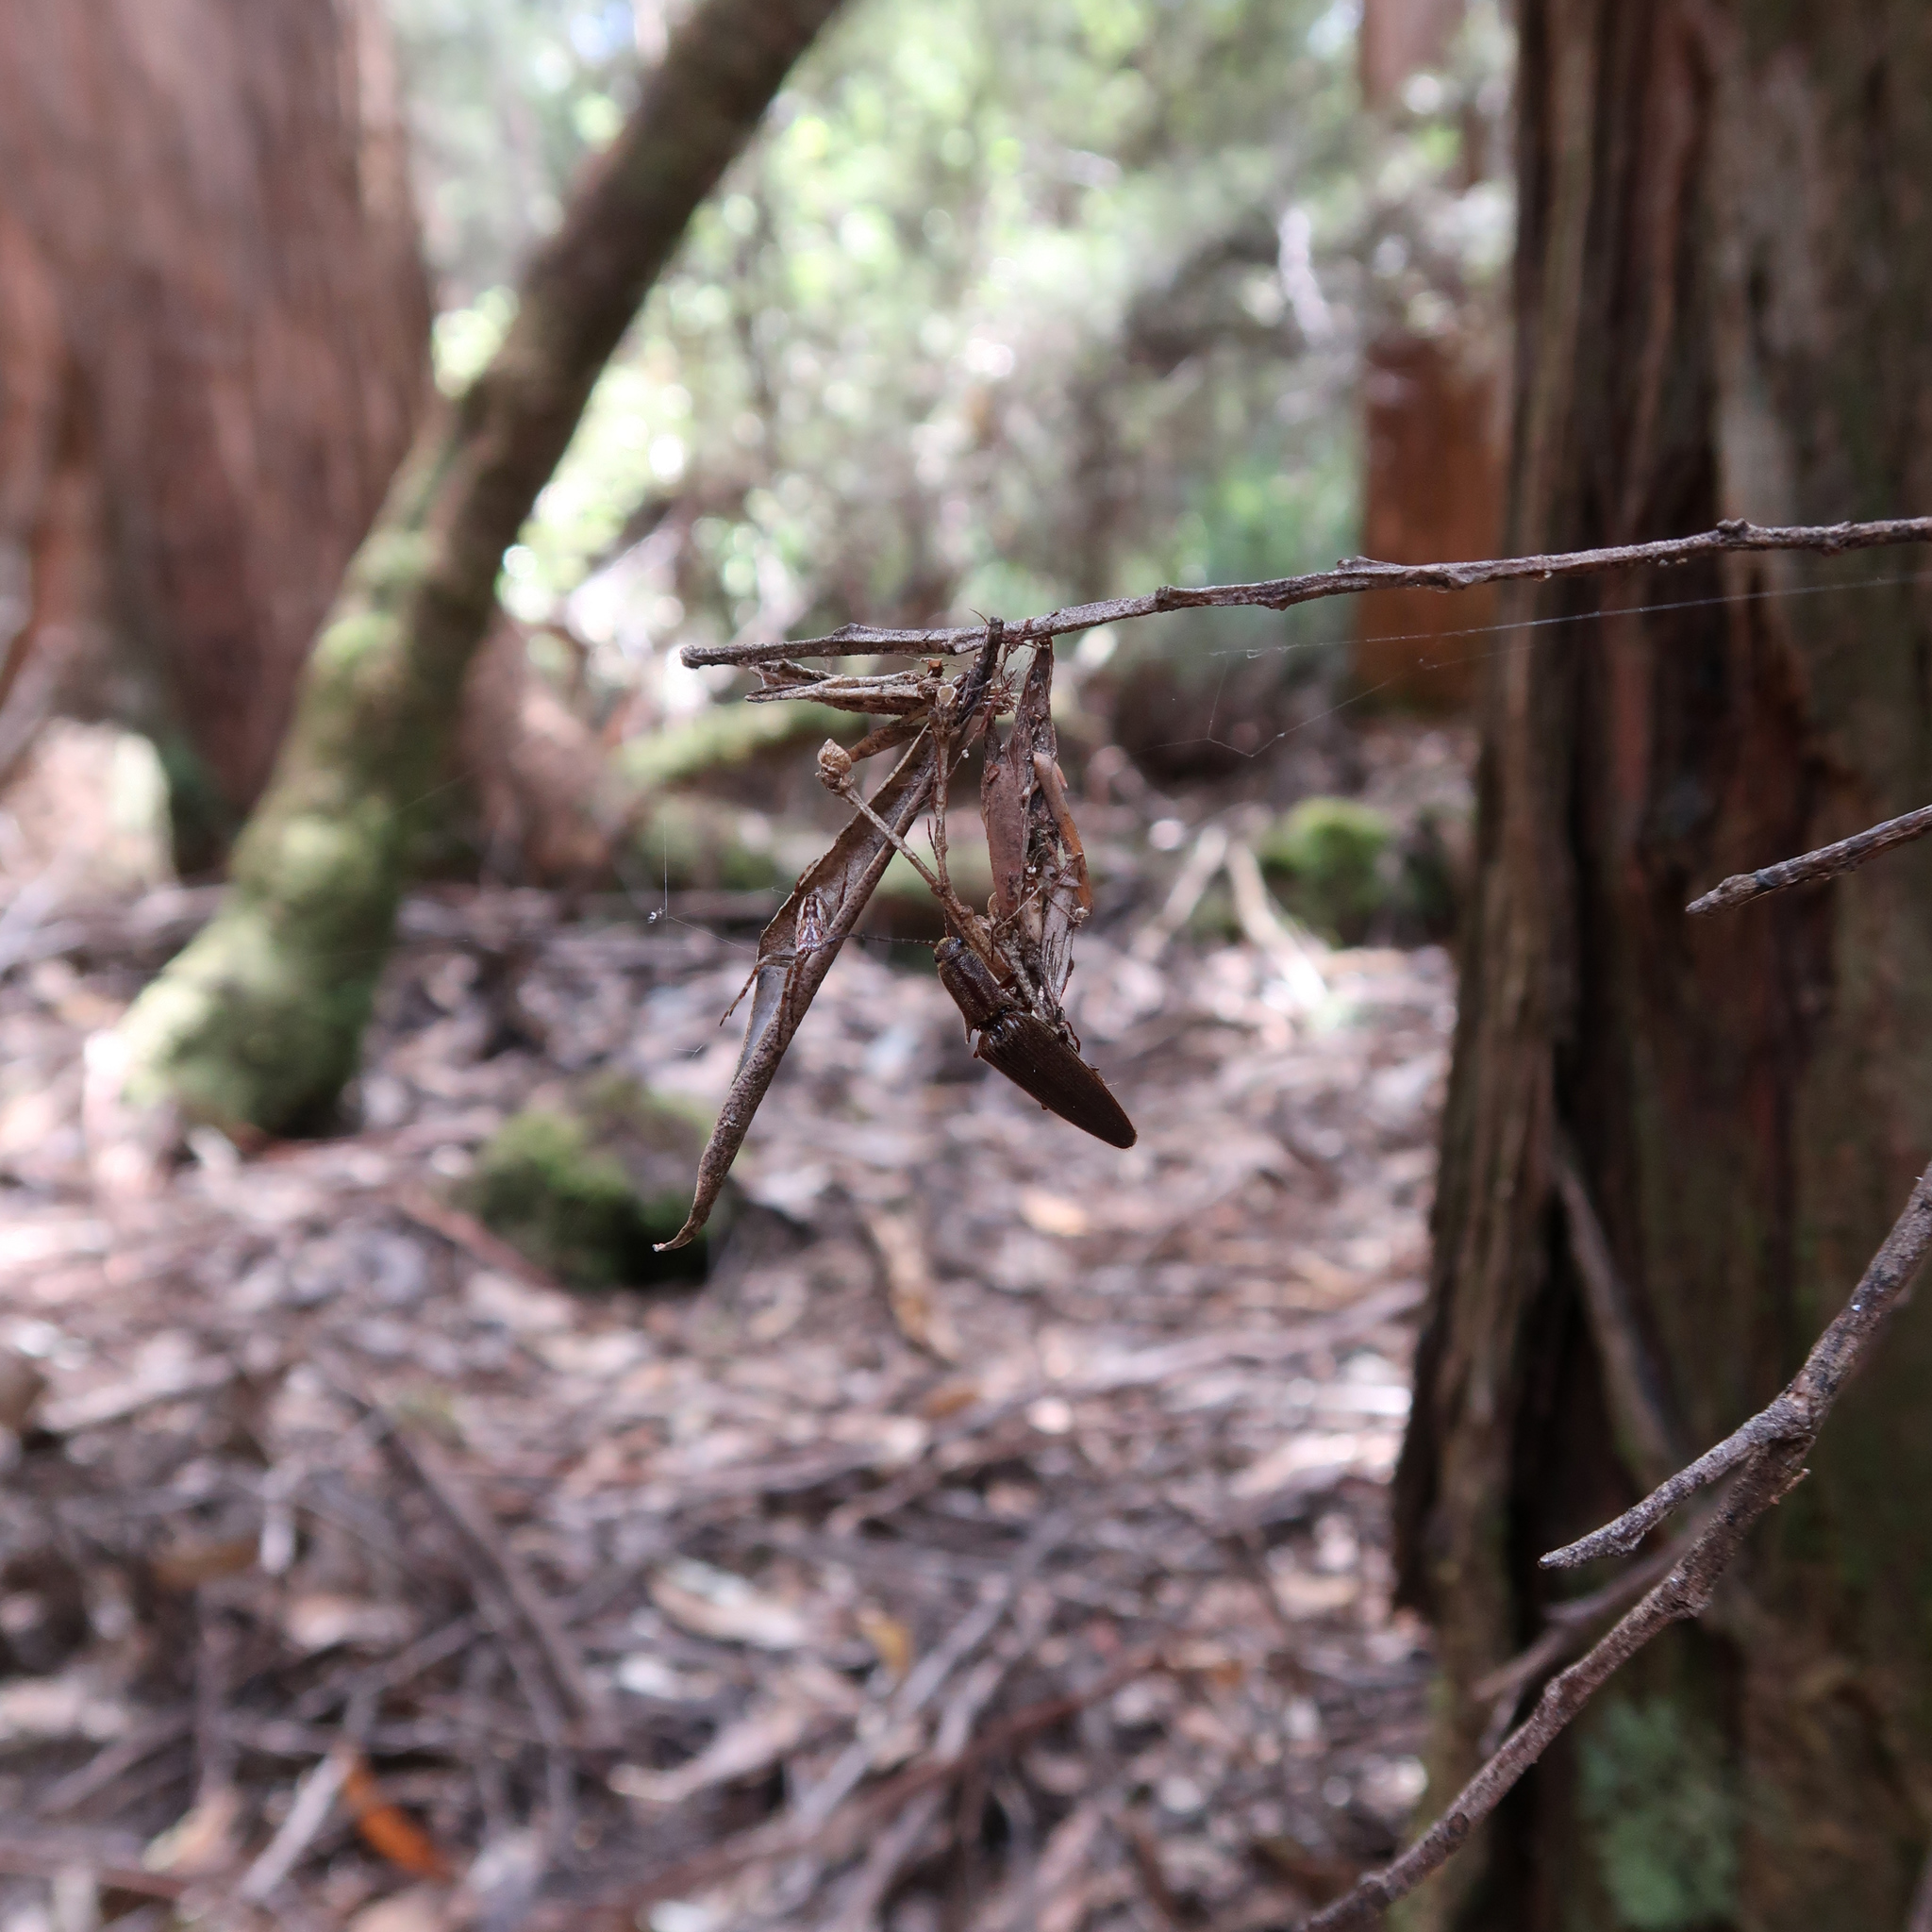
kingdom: Animalia
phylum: Arthropoda
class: Arachnida
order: Araneae
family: Araneidae
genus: Plebs
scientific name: Plebs bradleyi
